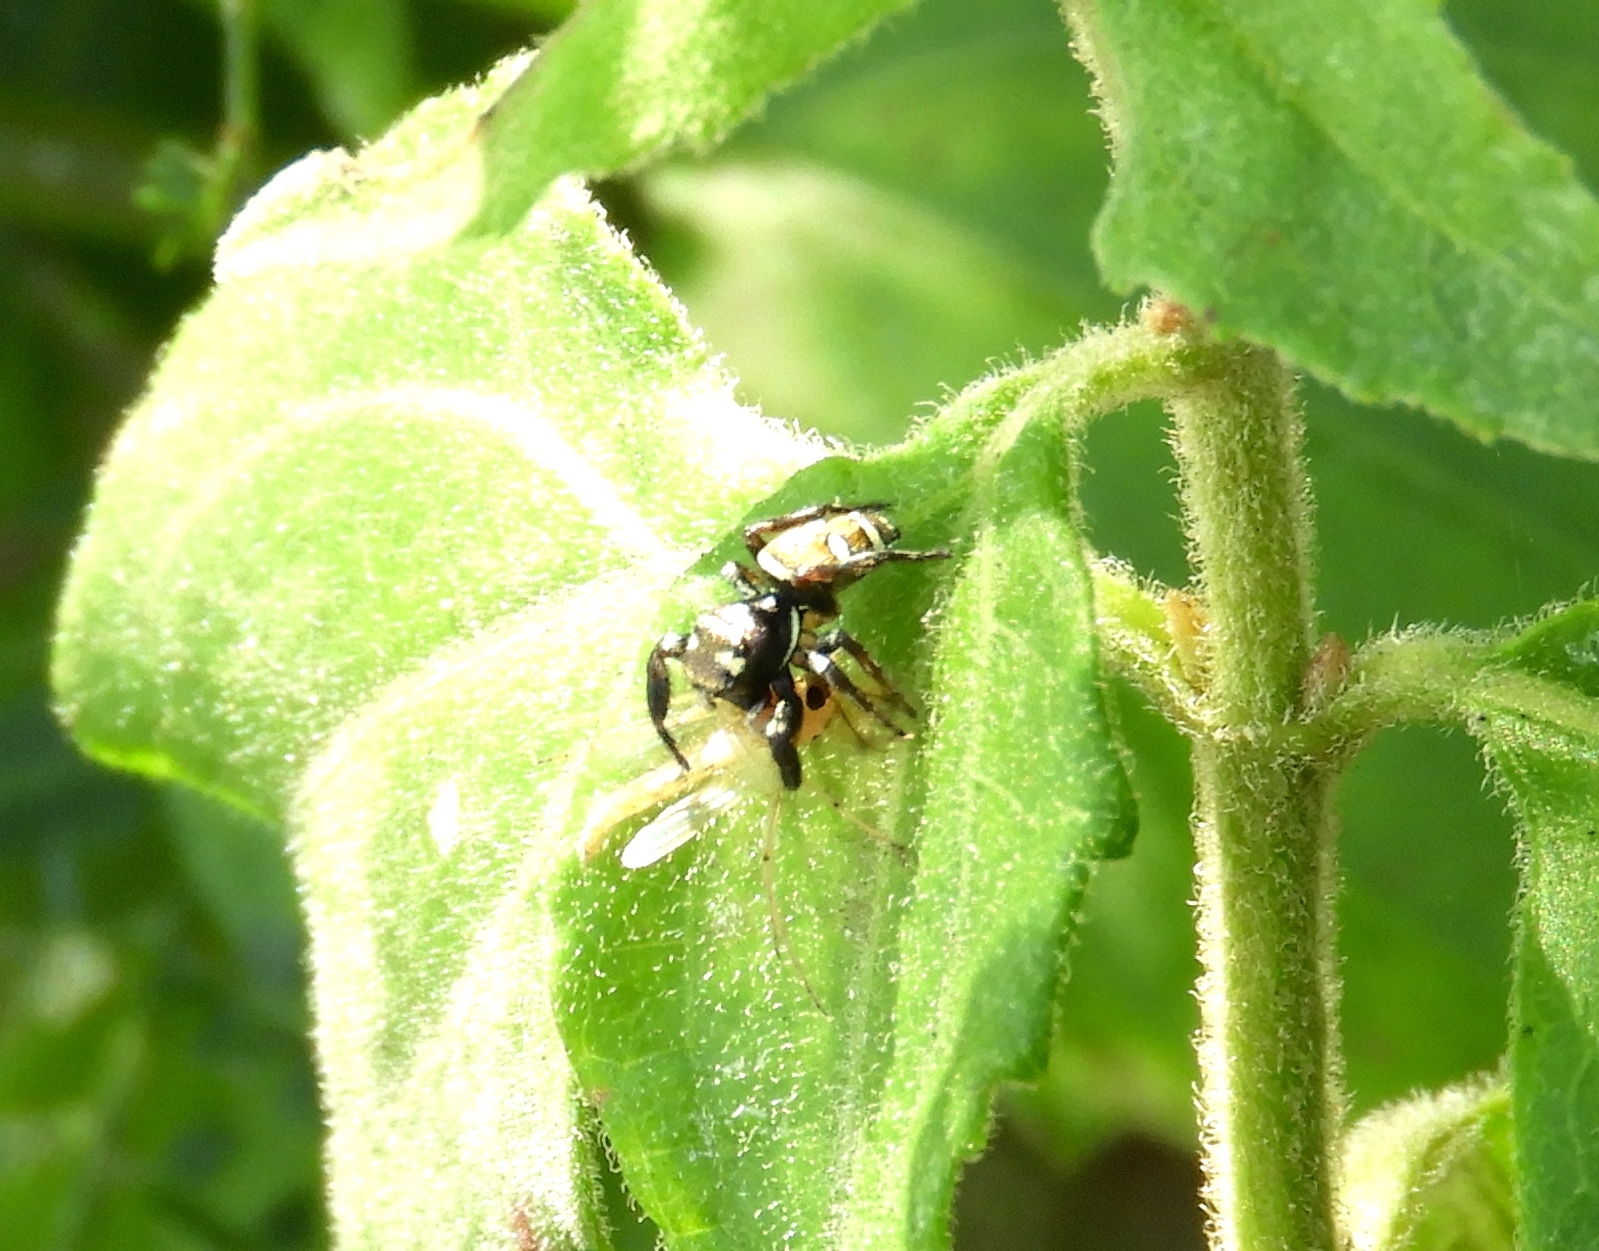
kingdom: Animalia
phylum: Arthropoda
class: Arachnida
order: Araneae
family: Salticidae
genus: Sassacus
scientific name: Sassacus
